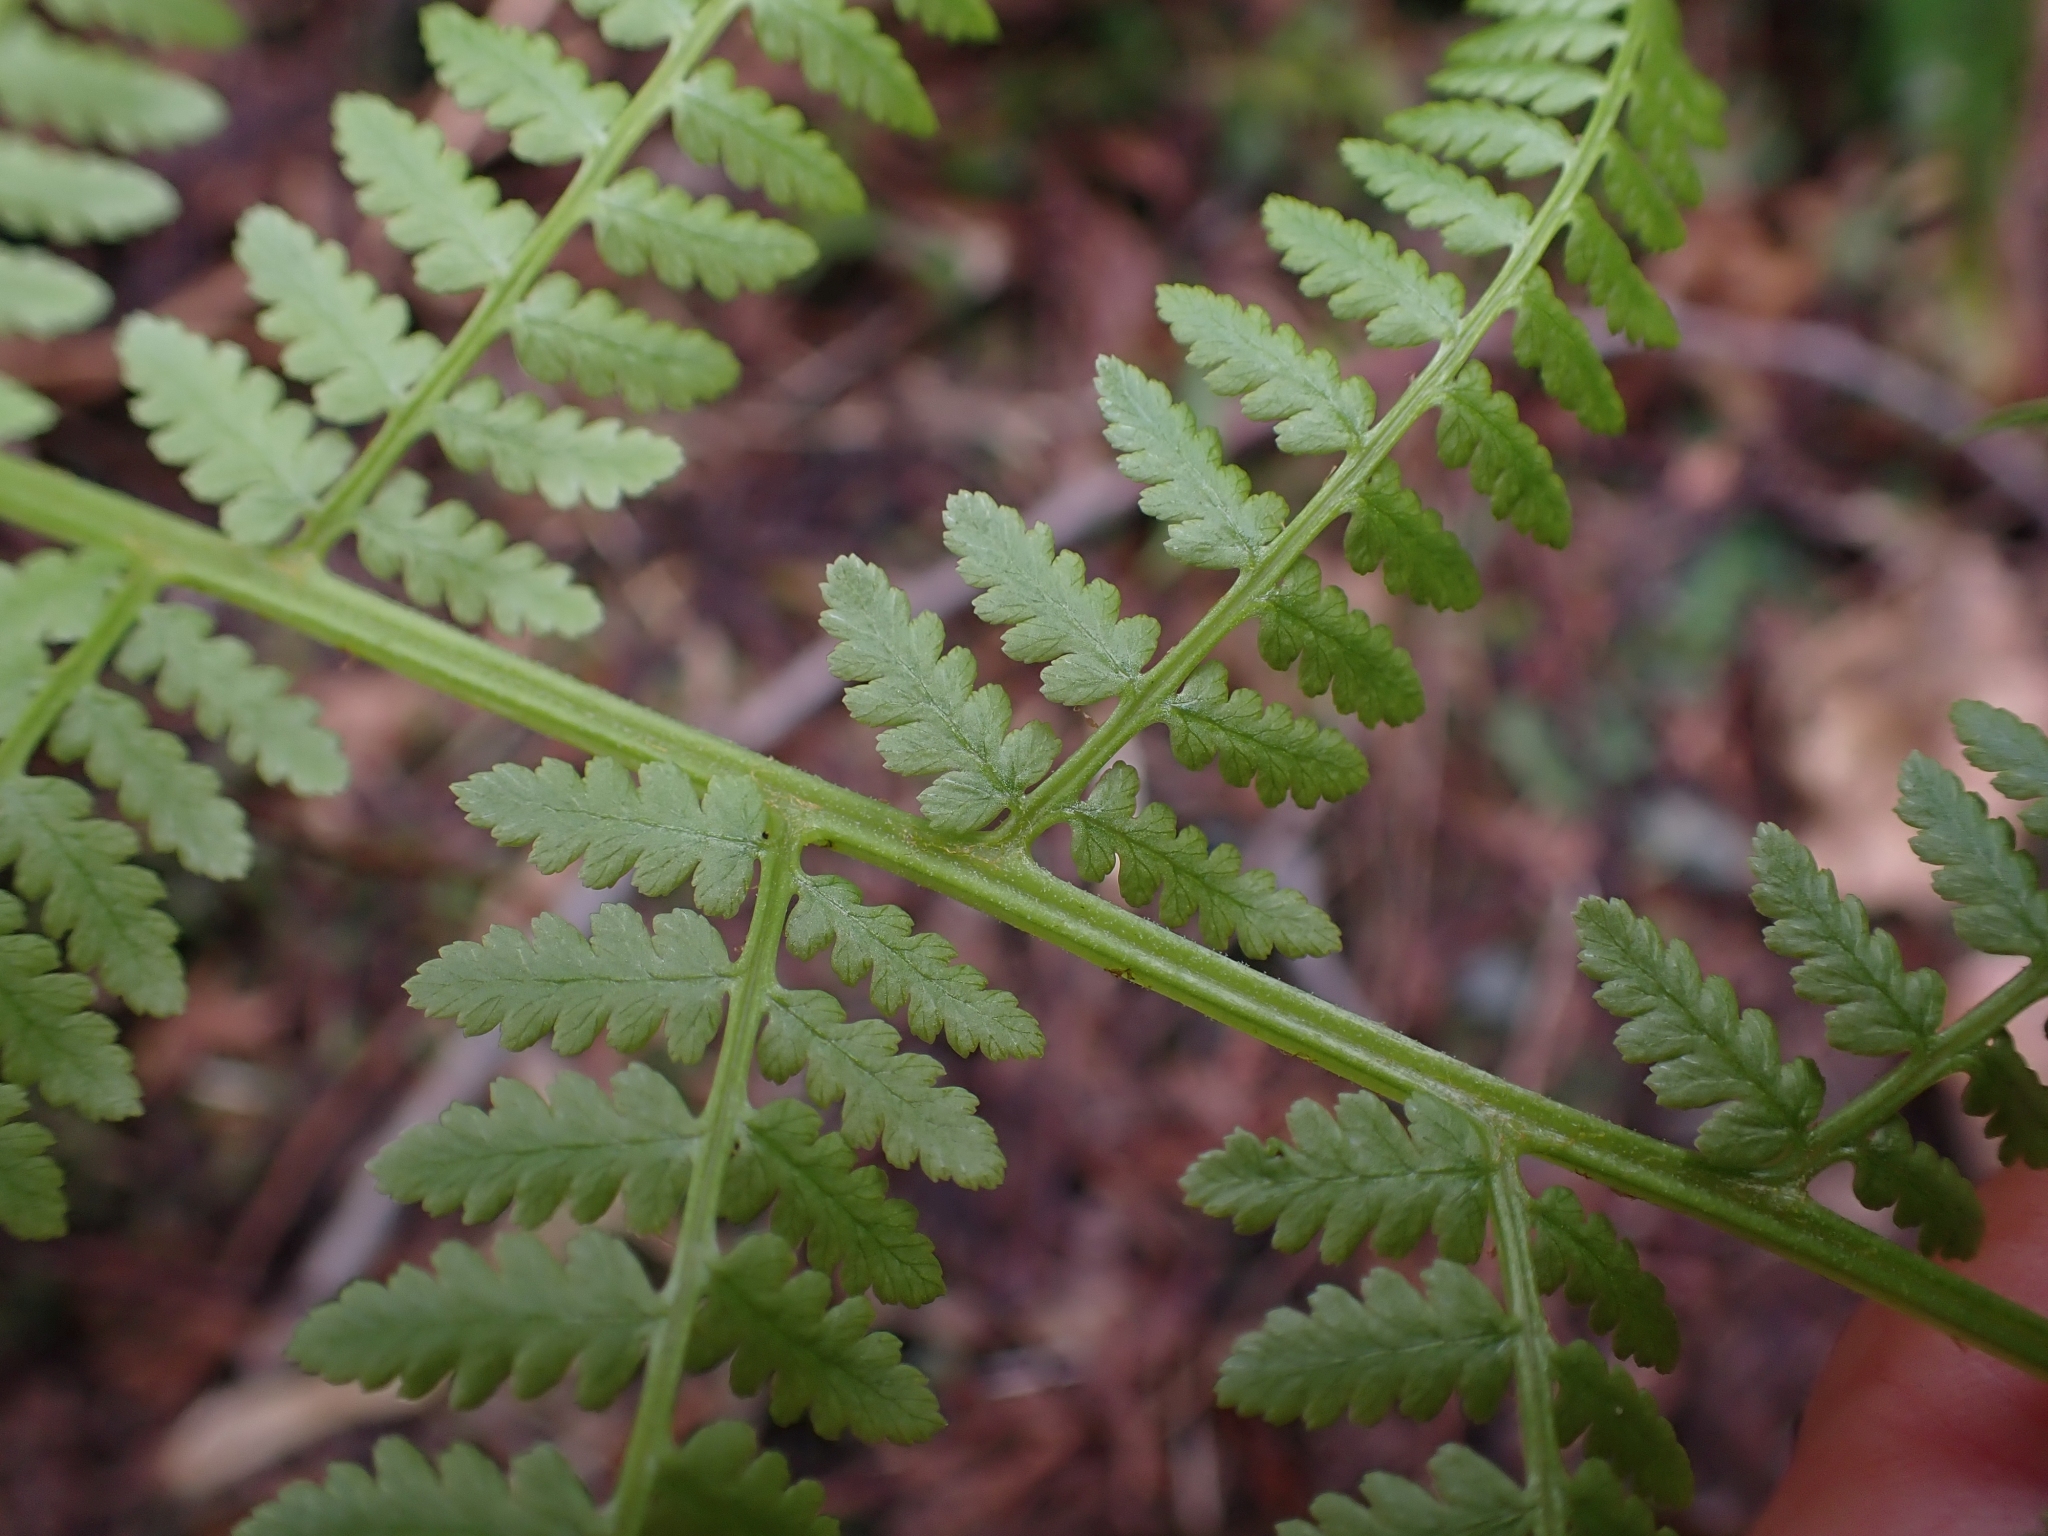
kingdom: Plantae
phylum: Tracheophyta
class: Polypodiopsida
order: Polypodiales
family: Athyriaceae
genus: Athyrium
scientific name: Athyrium filix-femina
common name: Lady fern
